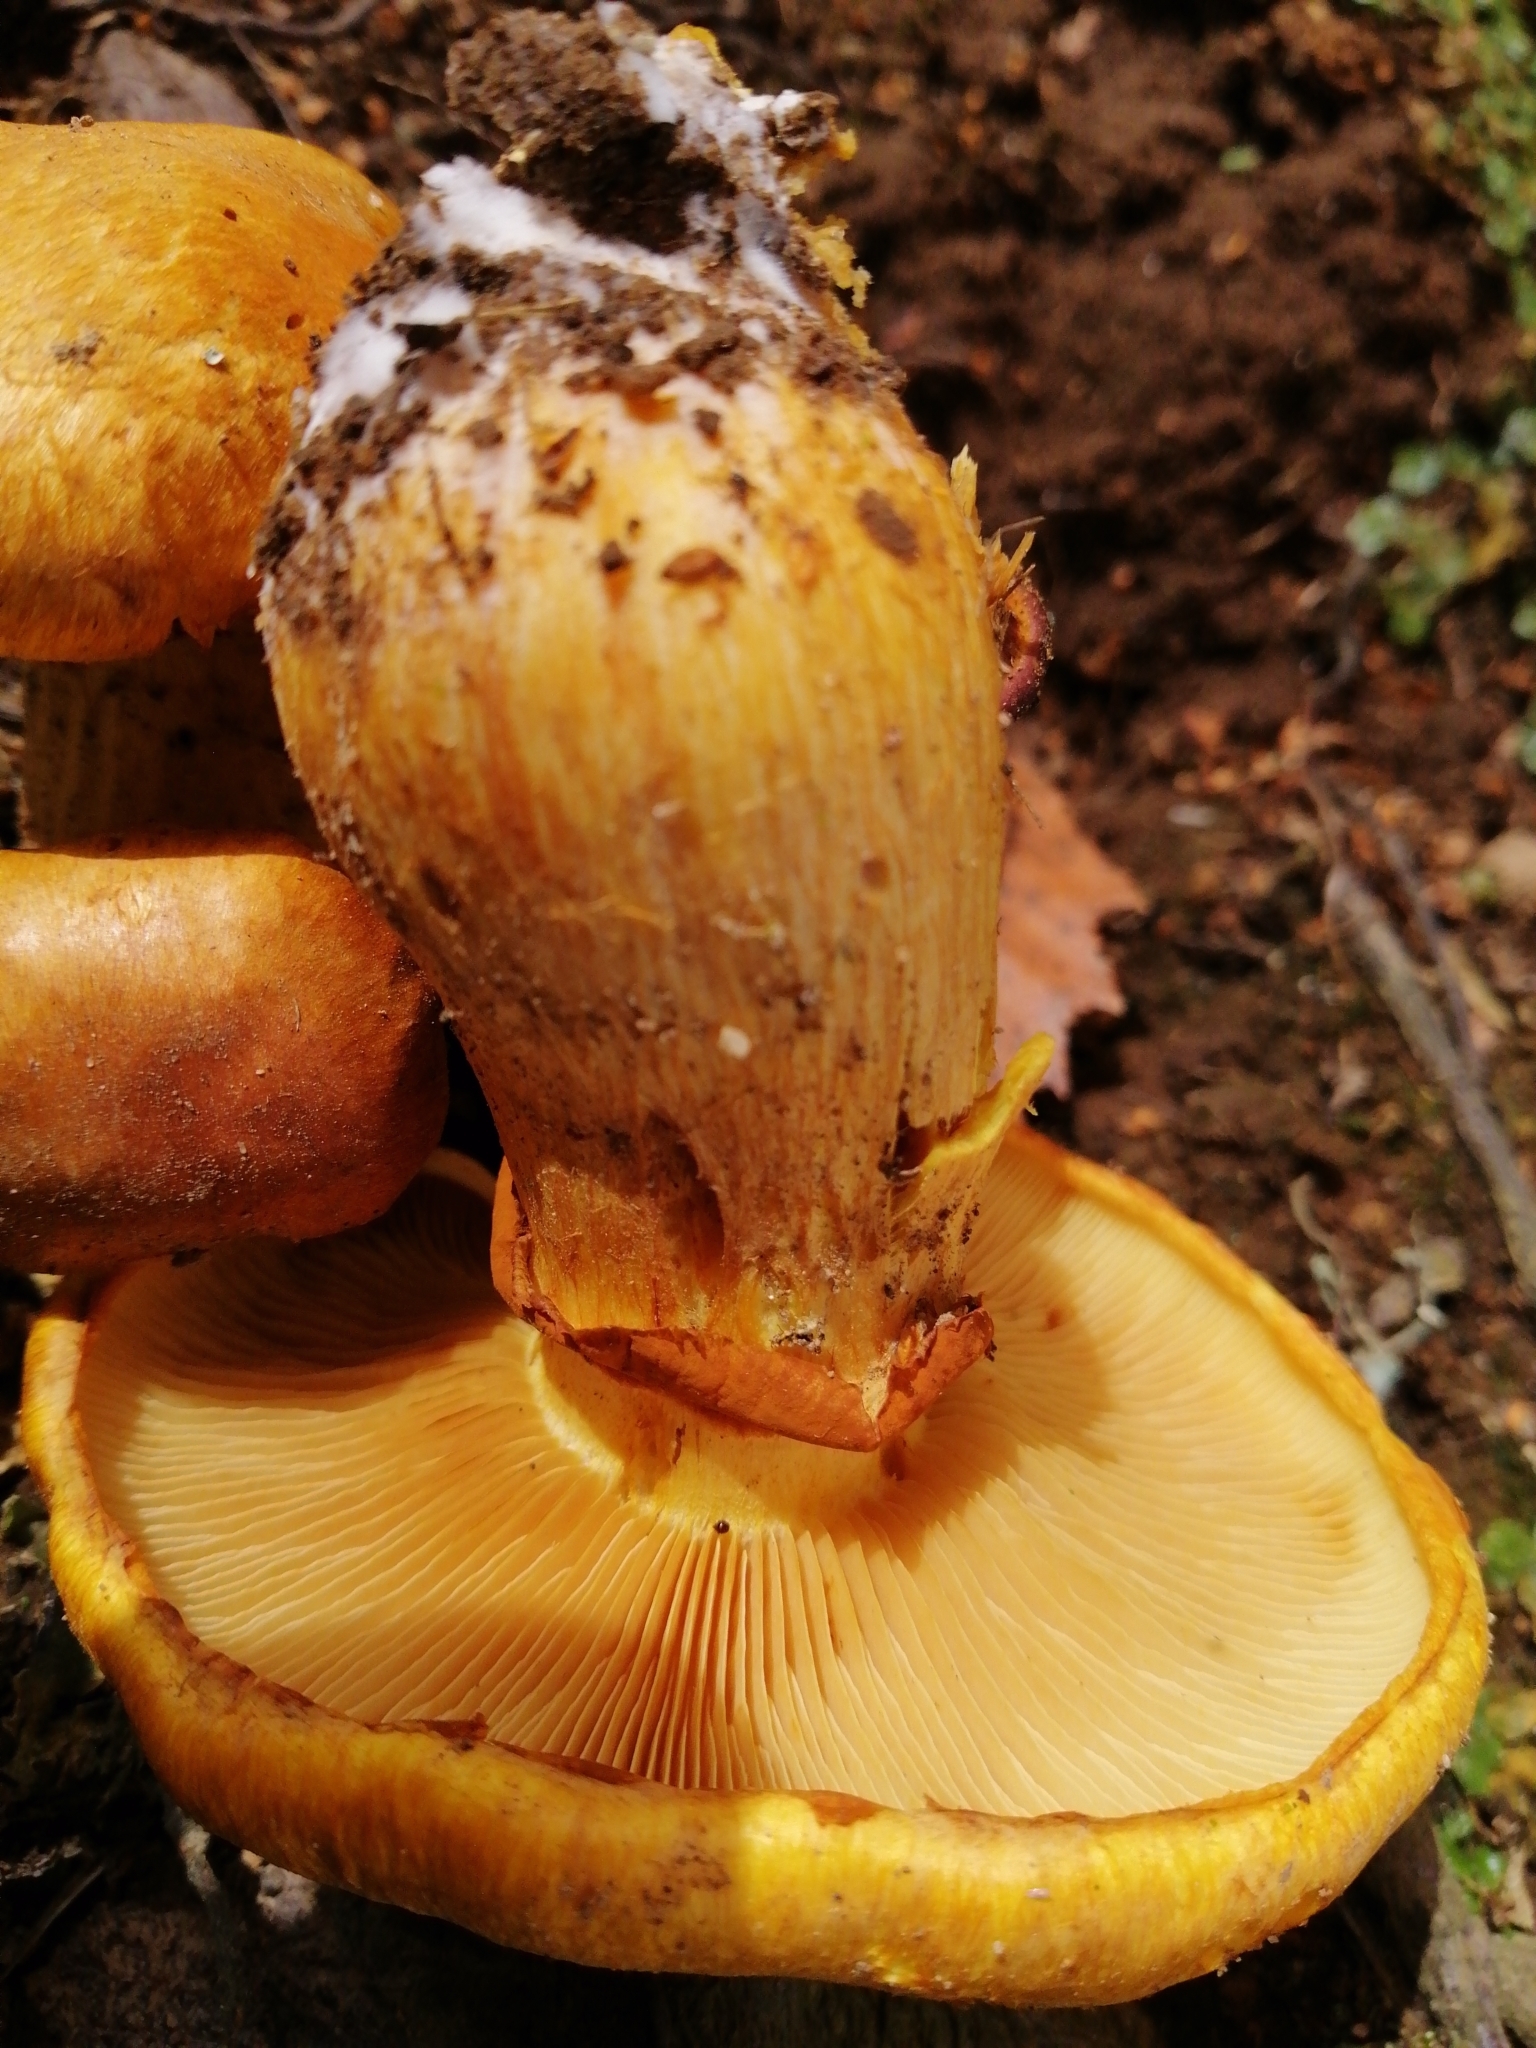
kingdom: Fungi
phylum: Basidiomycota
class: Agaricomycetes
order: Agaricales
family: Hymenogastraceae
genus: Gymnopilus
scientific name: Gymnopilus junonius
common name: Spectacular rustgill
